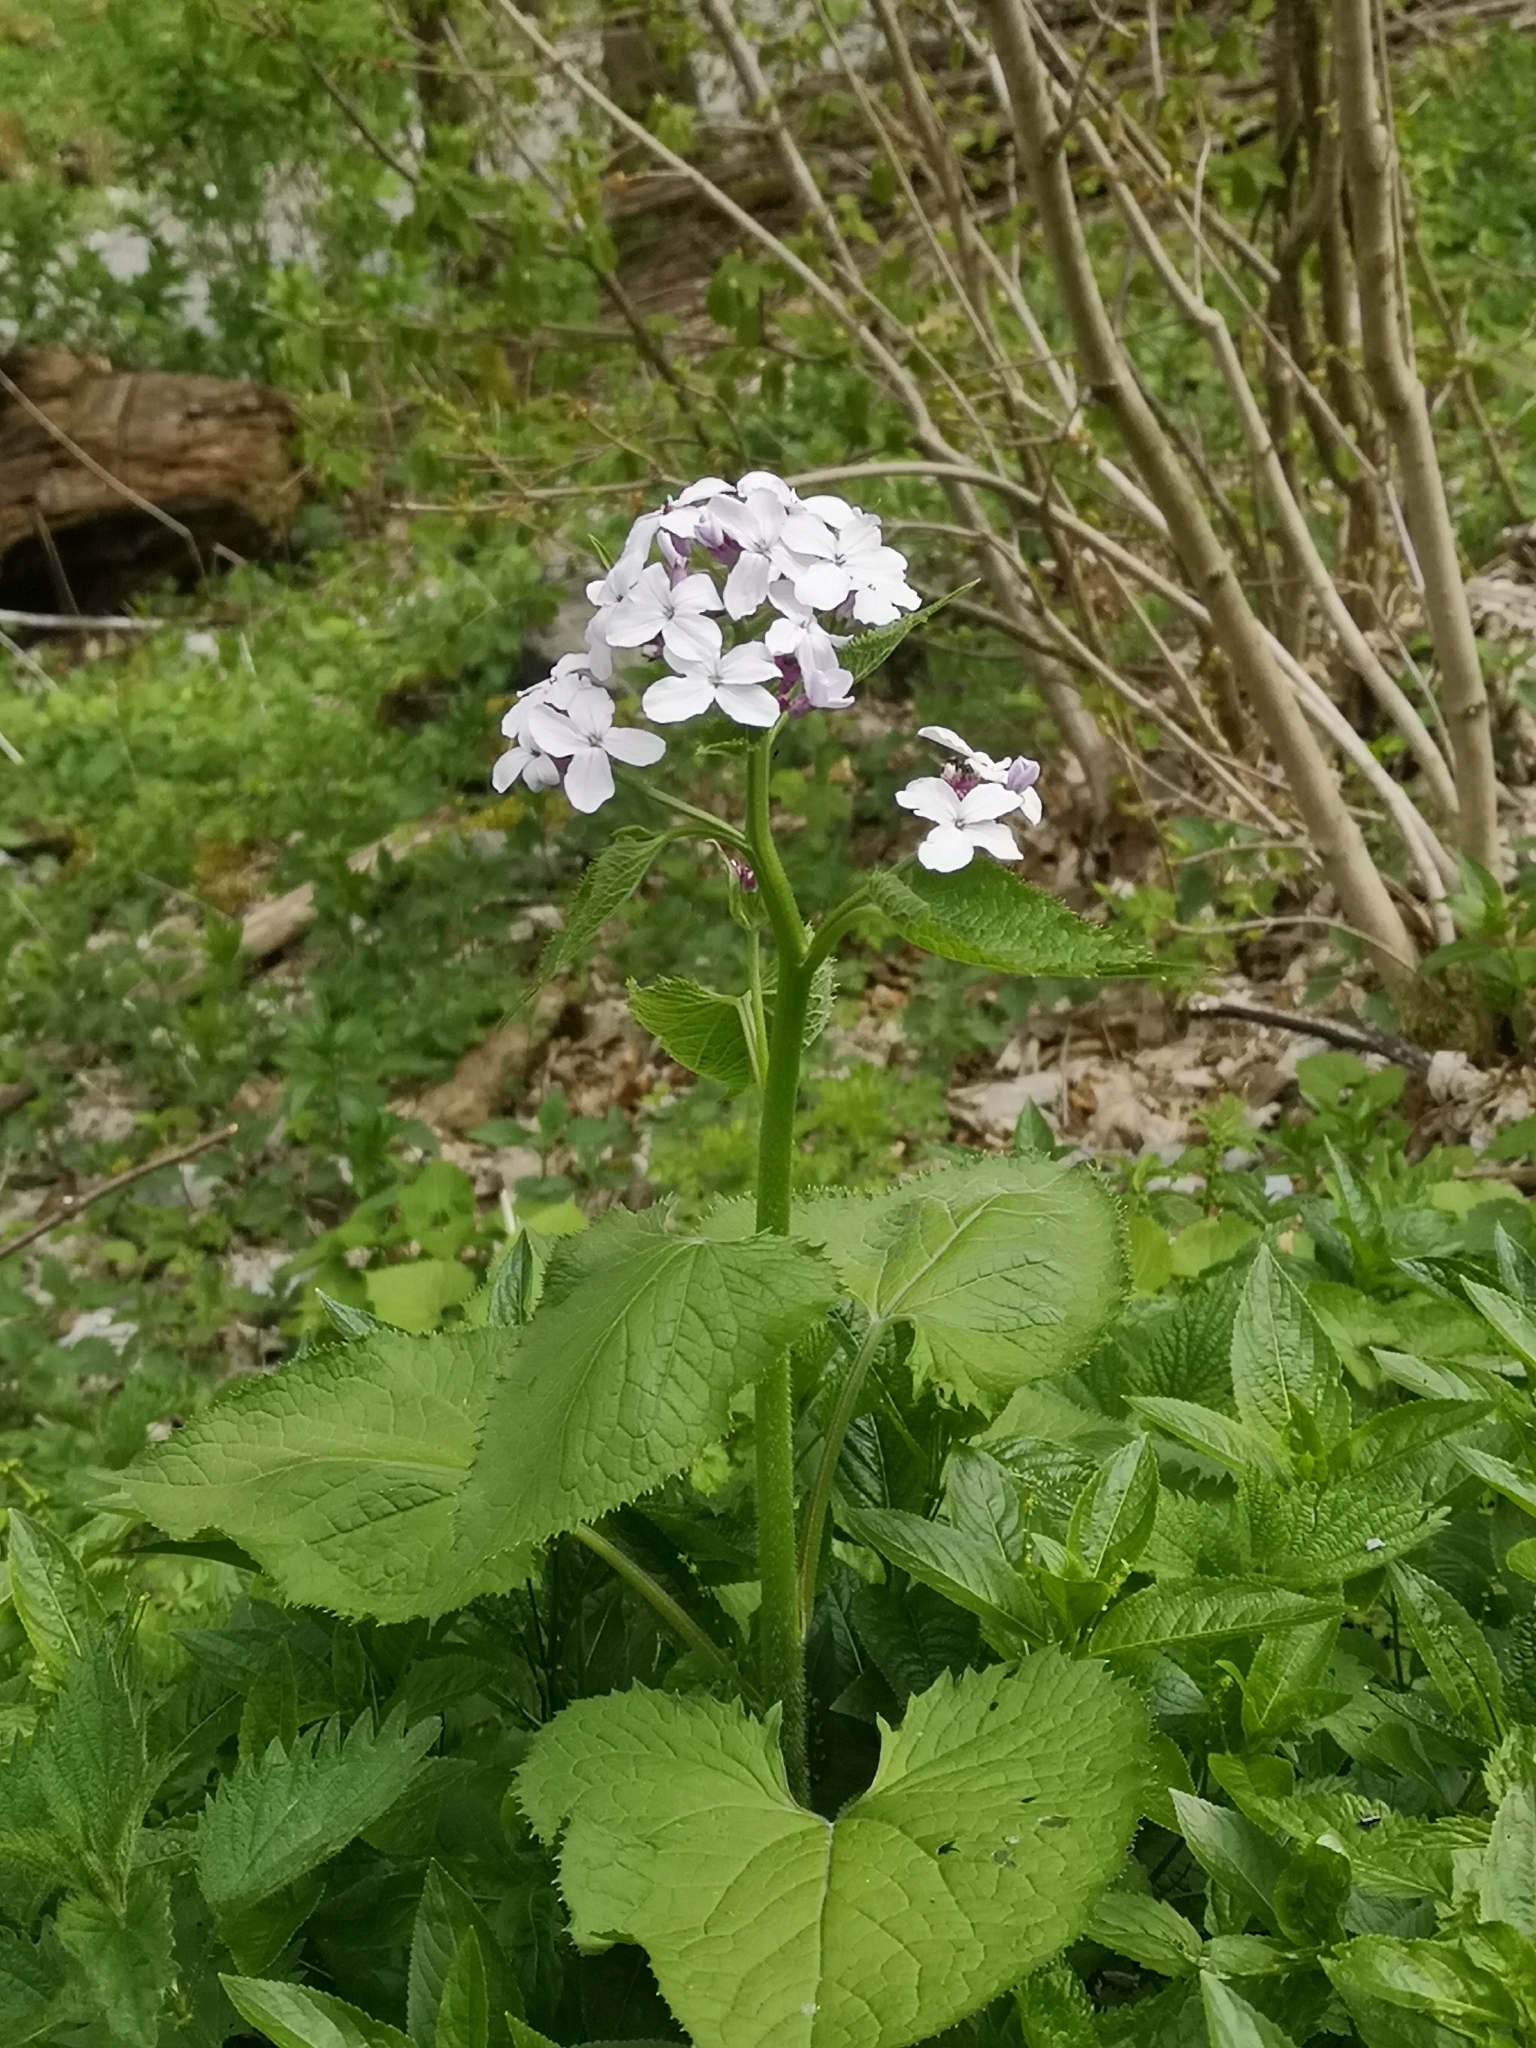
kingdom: Plantae
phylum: Tracheophyta
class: Magnoliopsida
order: Brassicales
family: Brassicaceae
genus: Lunaria
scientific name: Lunaria rediviva
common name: Perennial honesty
